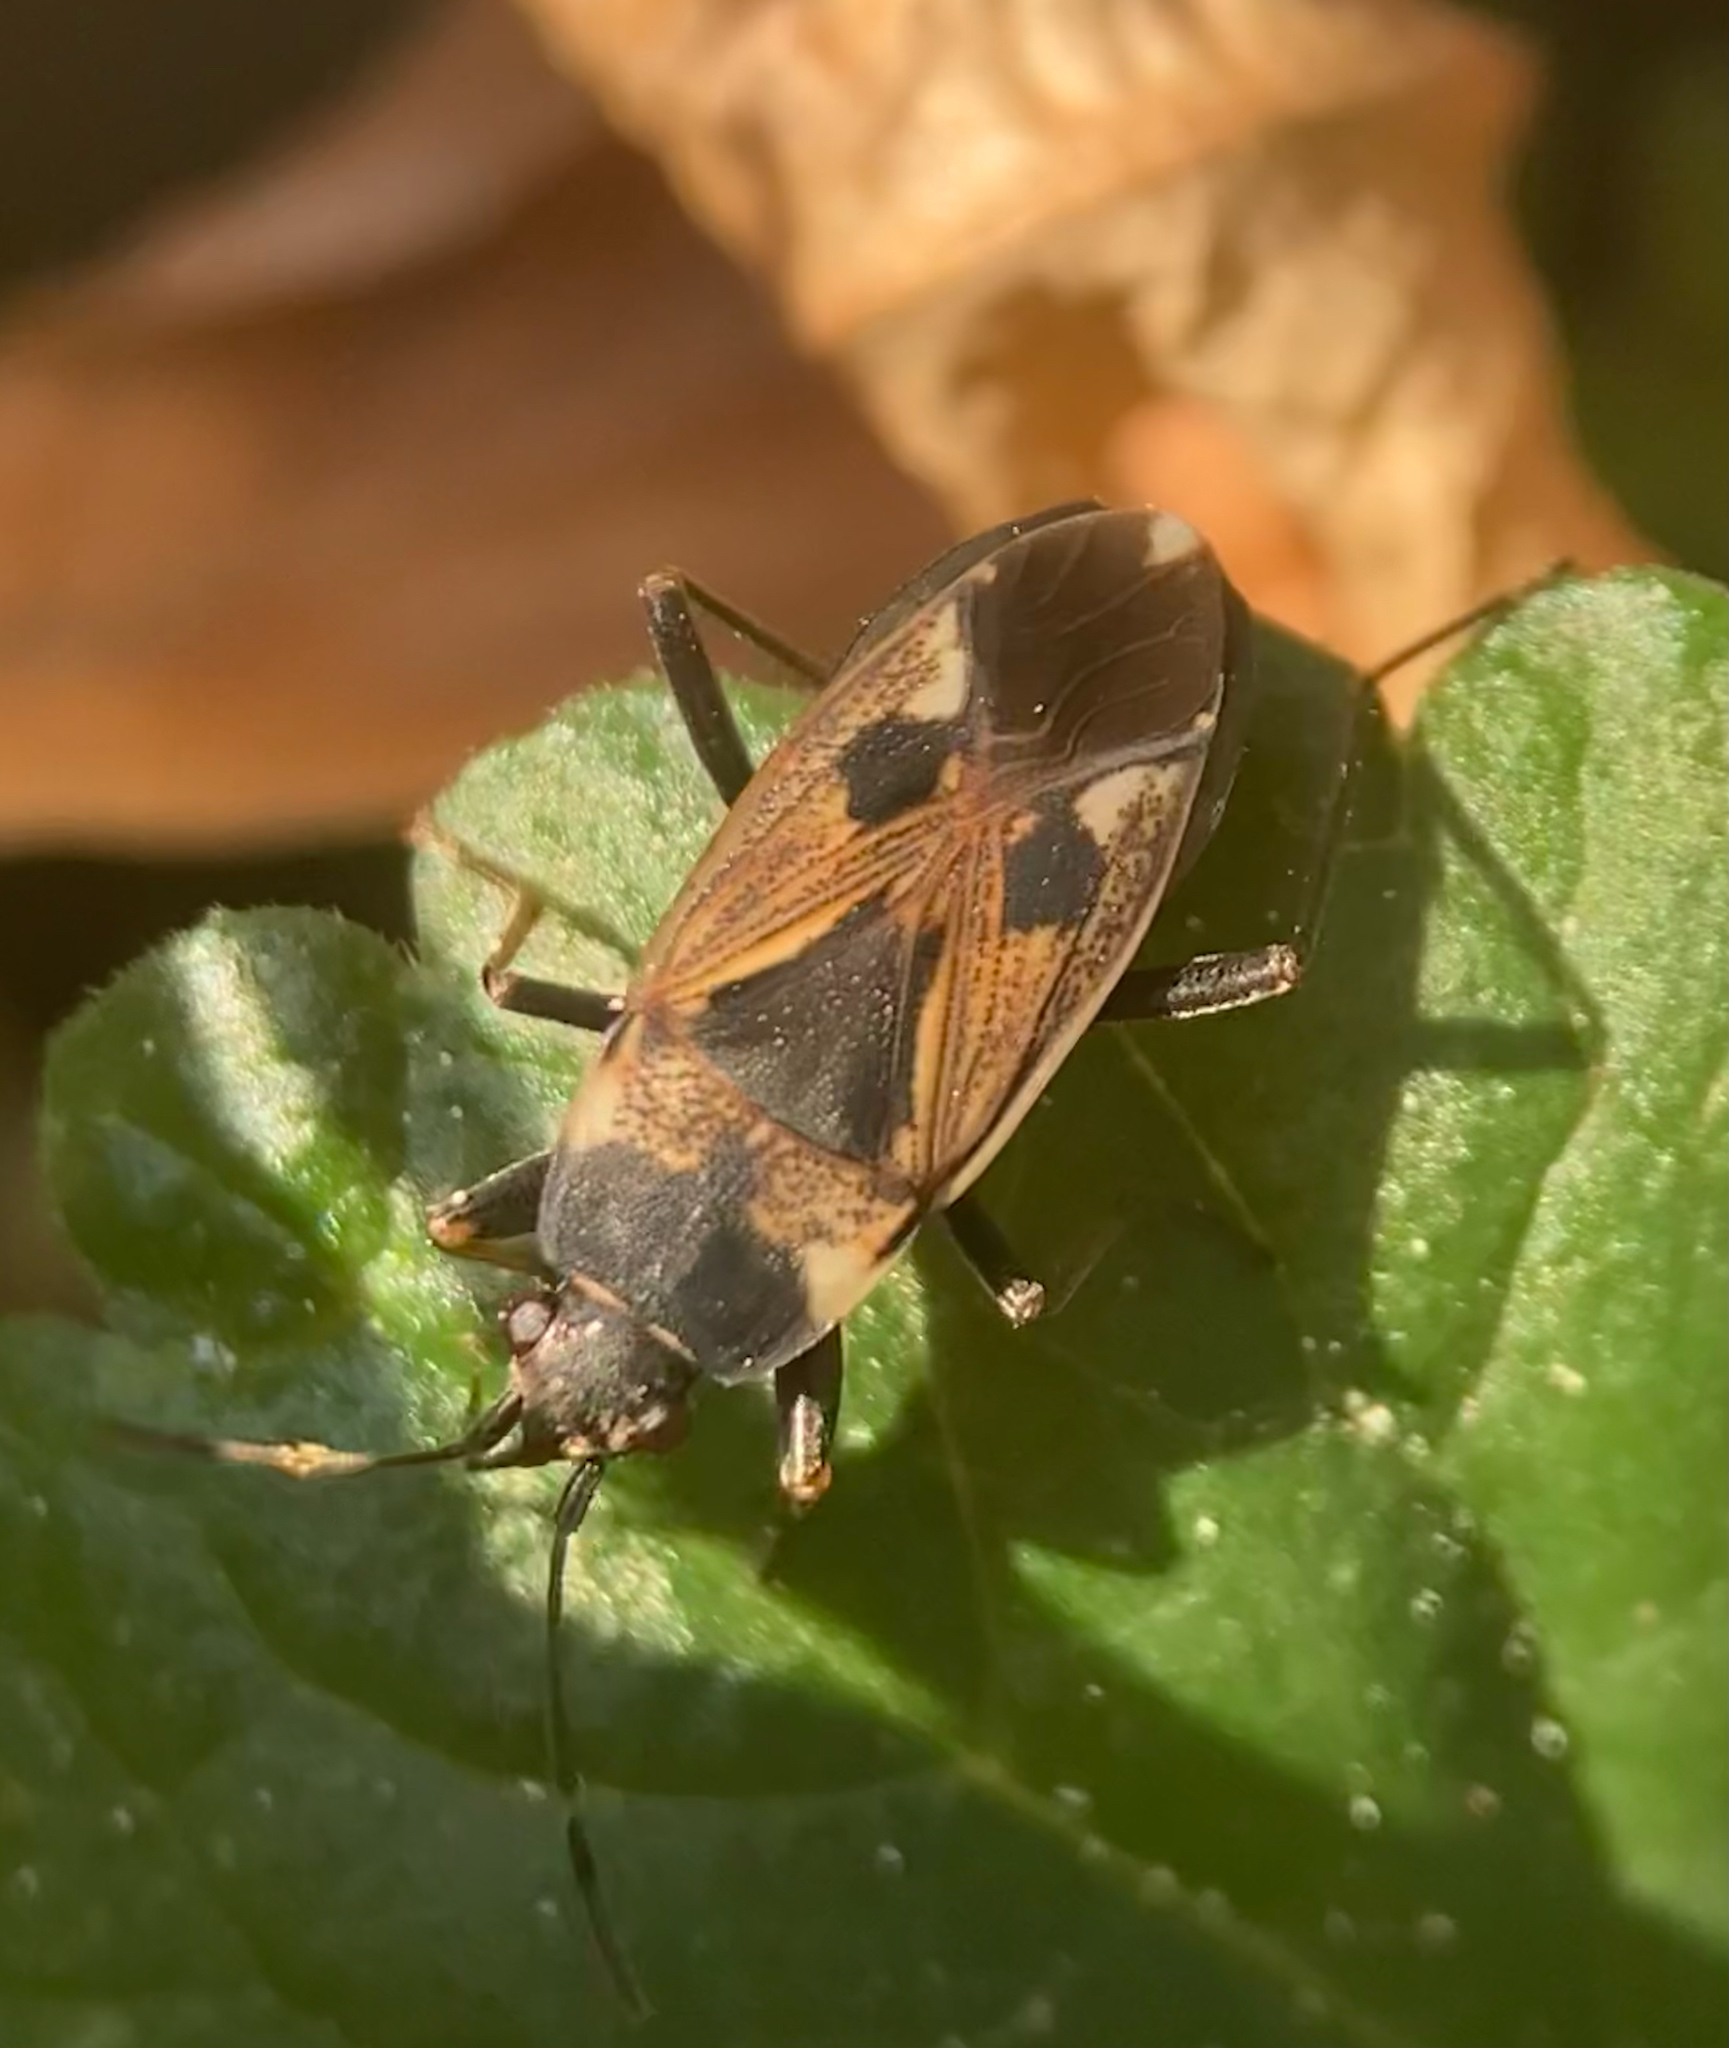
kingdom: Animalia
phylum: Arthropoda
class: Insecta
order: Hemiptera
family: Rhyparochromidae
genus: Rhyparochromus
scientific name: Rhyparochromus vulgaris
